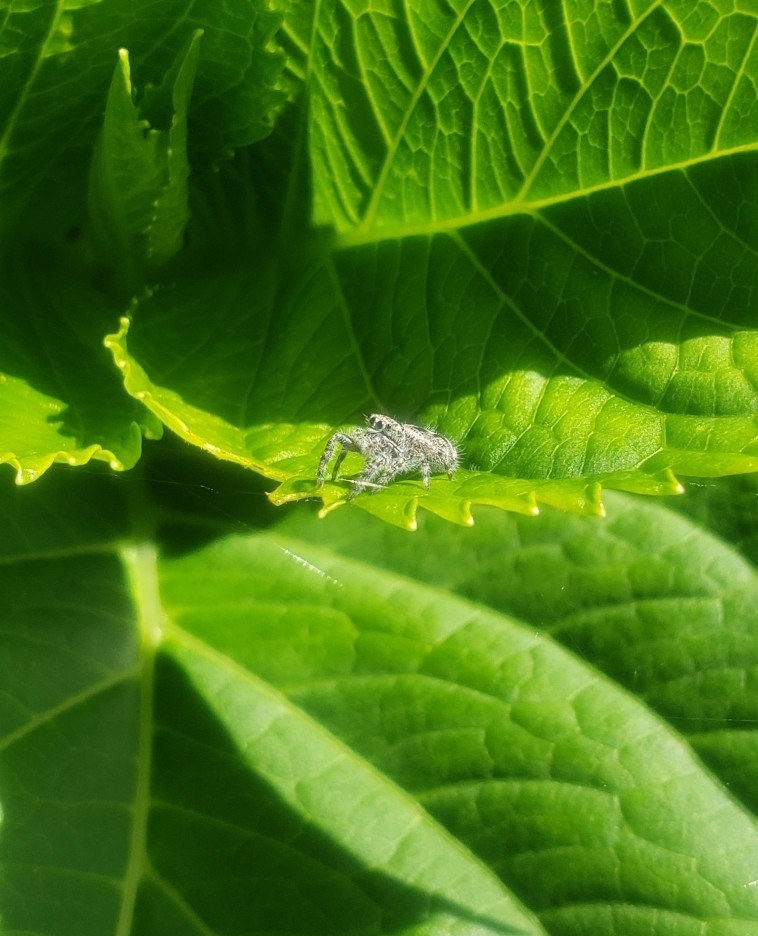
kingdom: Animalia
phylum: Arthropoda
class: Arachnida
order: Araneae
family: Salticidae
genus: Phidippus
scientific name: Phidippus putnami
